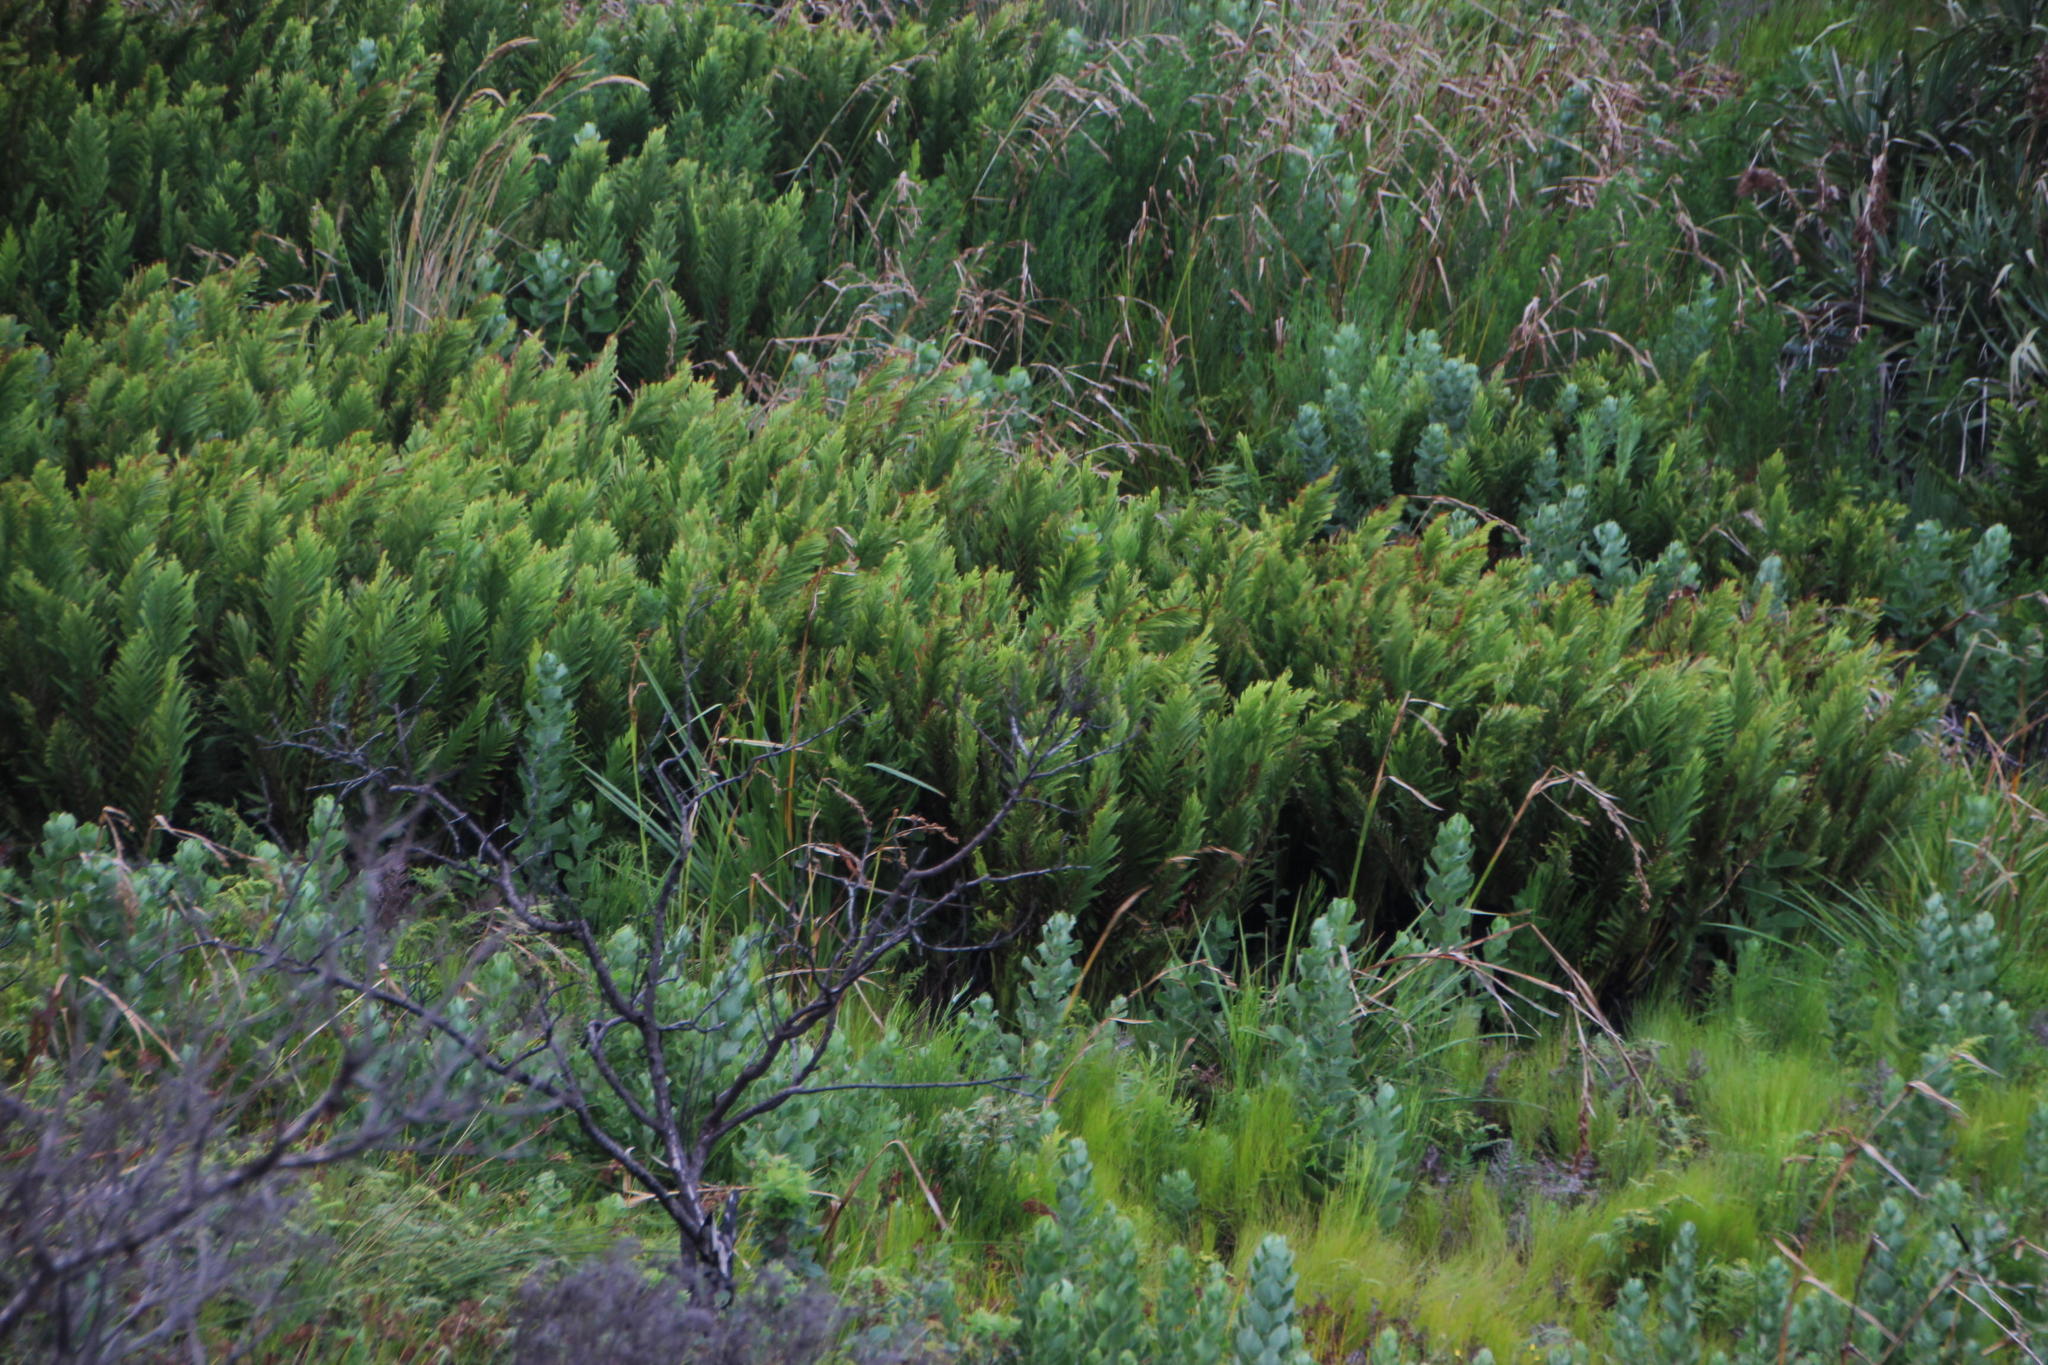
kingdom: Plantae
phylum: Tracheophyta
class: Polypodiopsida
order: Osmundales
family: Osmundaceae
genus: Todea
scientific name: Todea barbara
